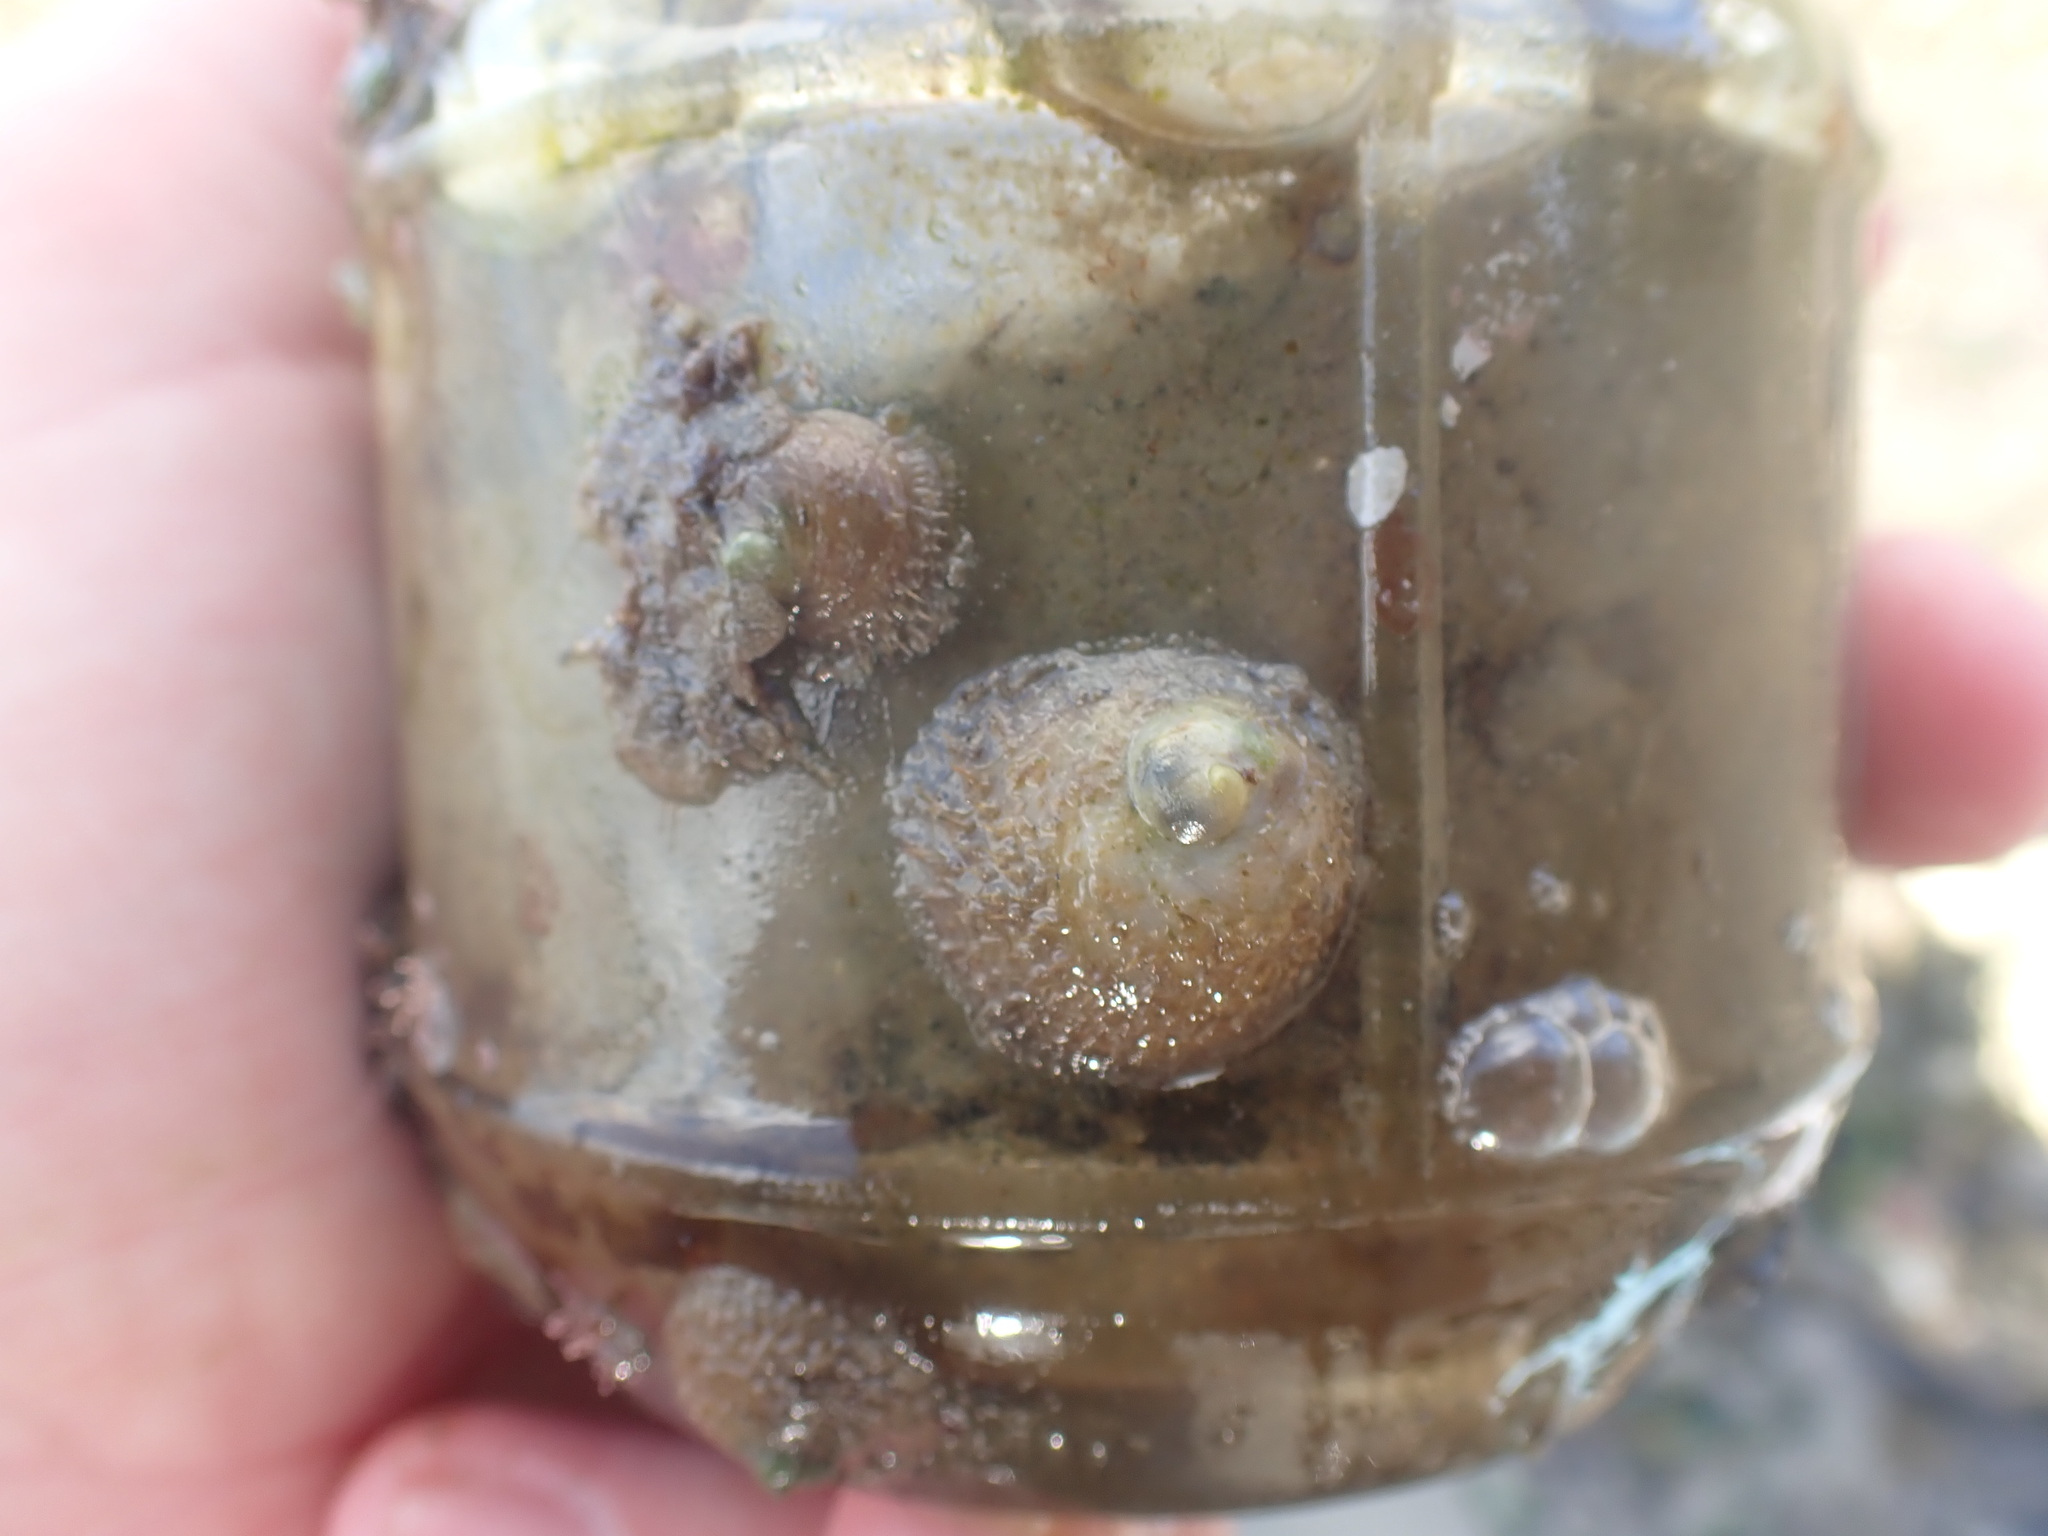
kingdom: Animalia
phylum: Mollusca
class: Gastropoda
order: Littorinimorpha
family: Calyptraeidae
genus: Sigapatella
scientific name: Sigapatella novaezelandiae
